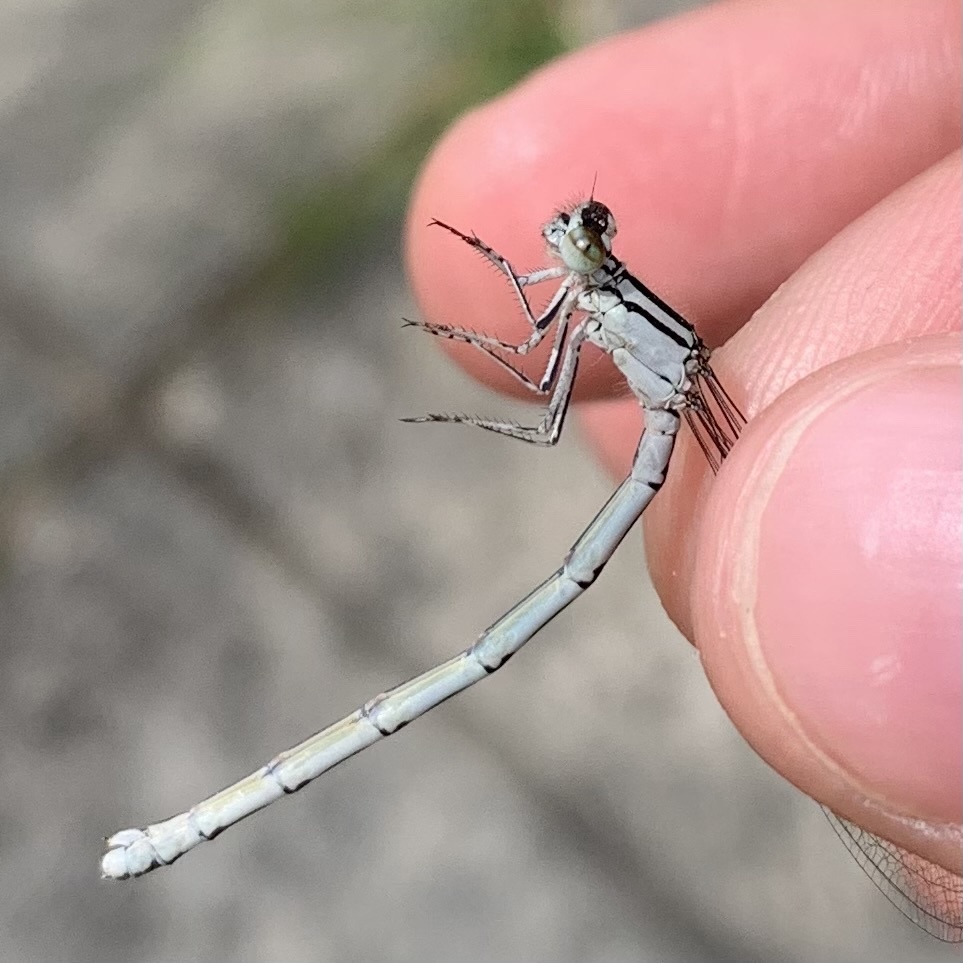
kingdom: Animalia
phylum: Arthropoda
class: Insecta
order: Odonata
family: Coenagrionidae
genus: Enallagma
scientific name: Enallagma cyathigerum
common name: Common blue damselfly
